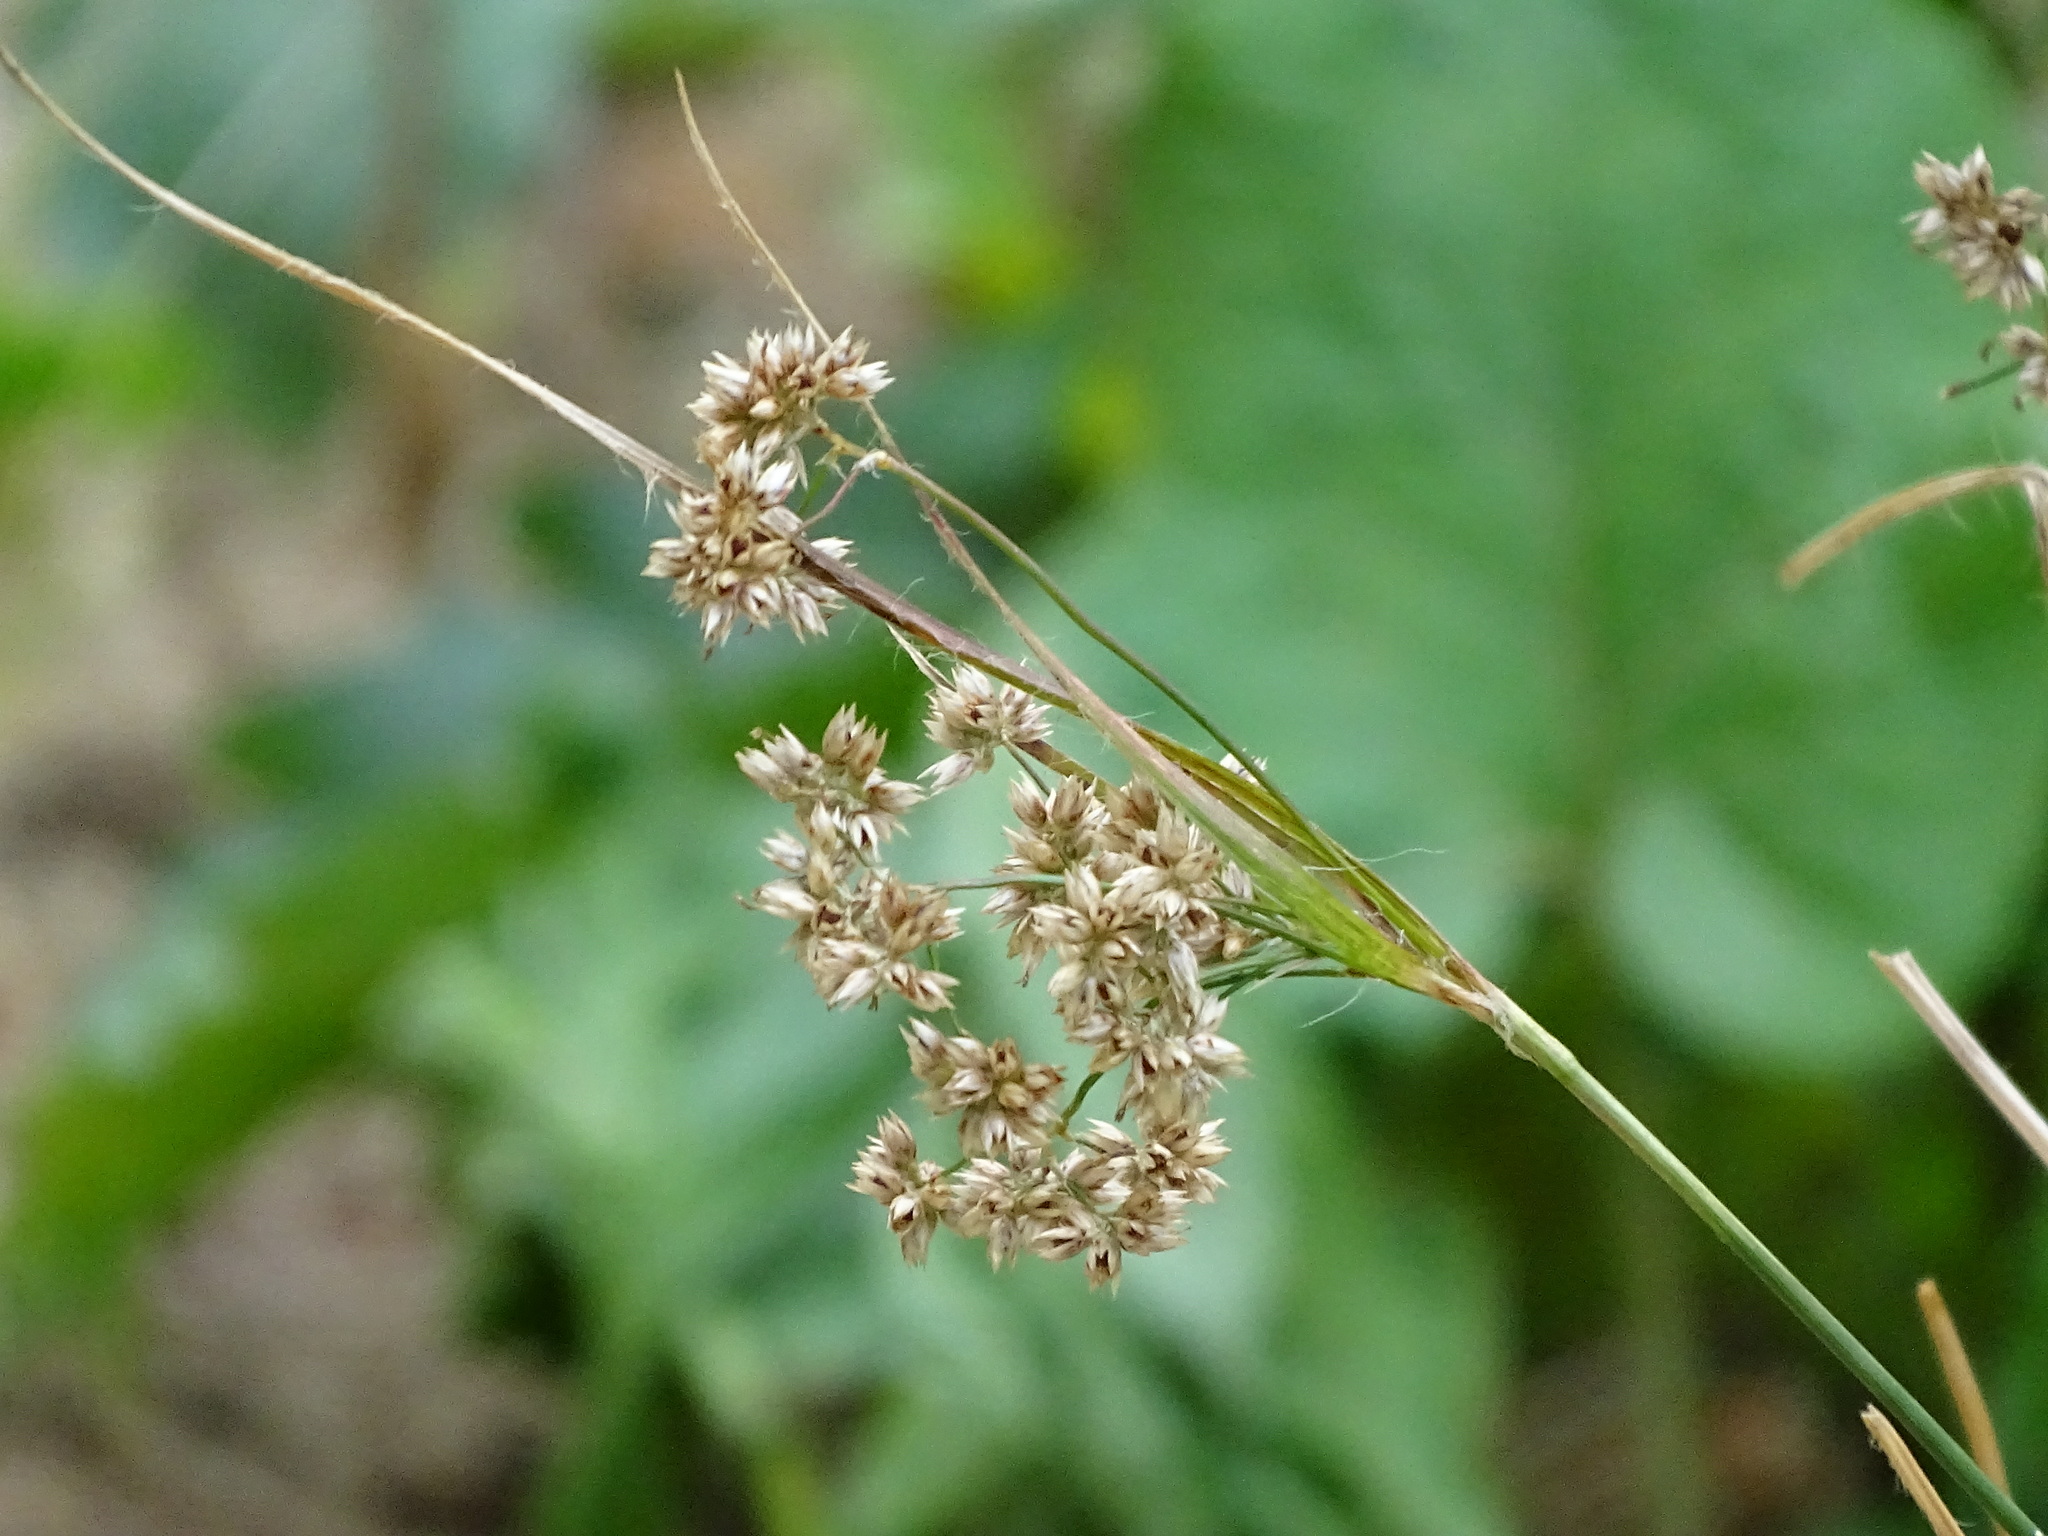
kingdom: Plantae
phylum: Tracheophyta
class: Liliopsida
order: Poales
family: Juncaceae
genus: Luzula
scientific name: Luzula luzuloides
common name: White wood-rush
